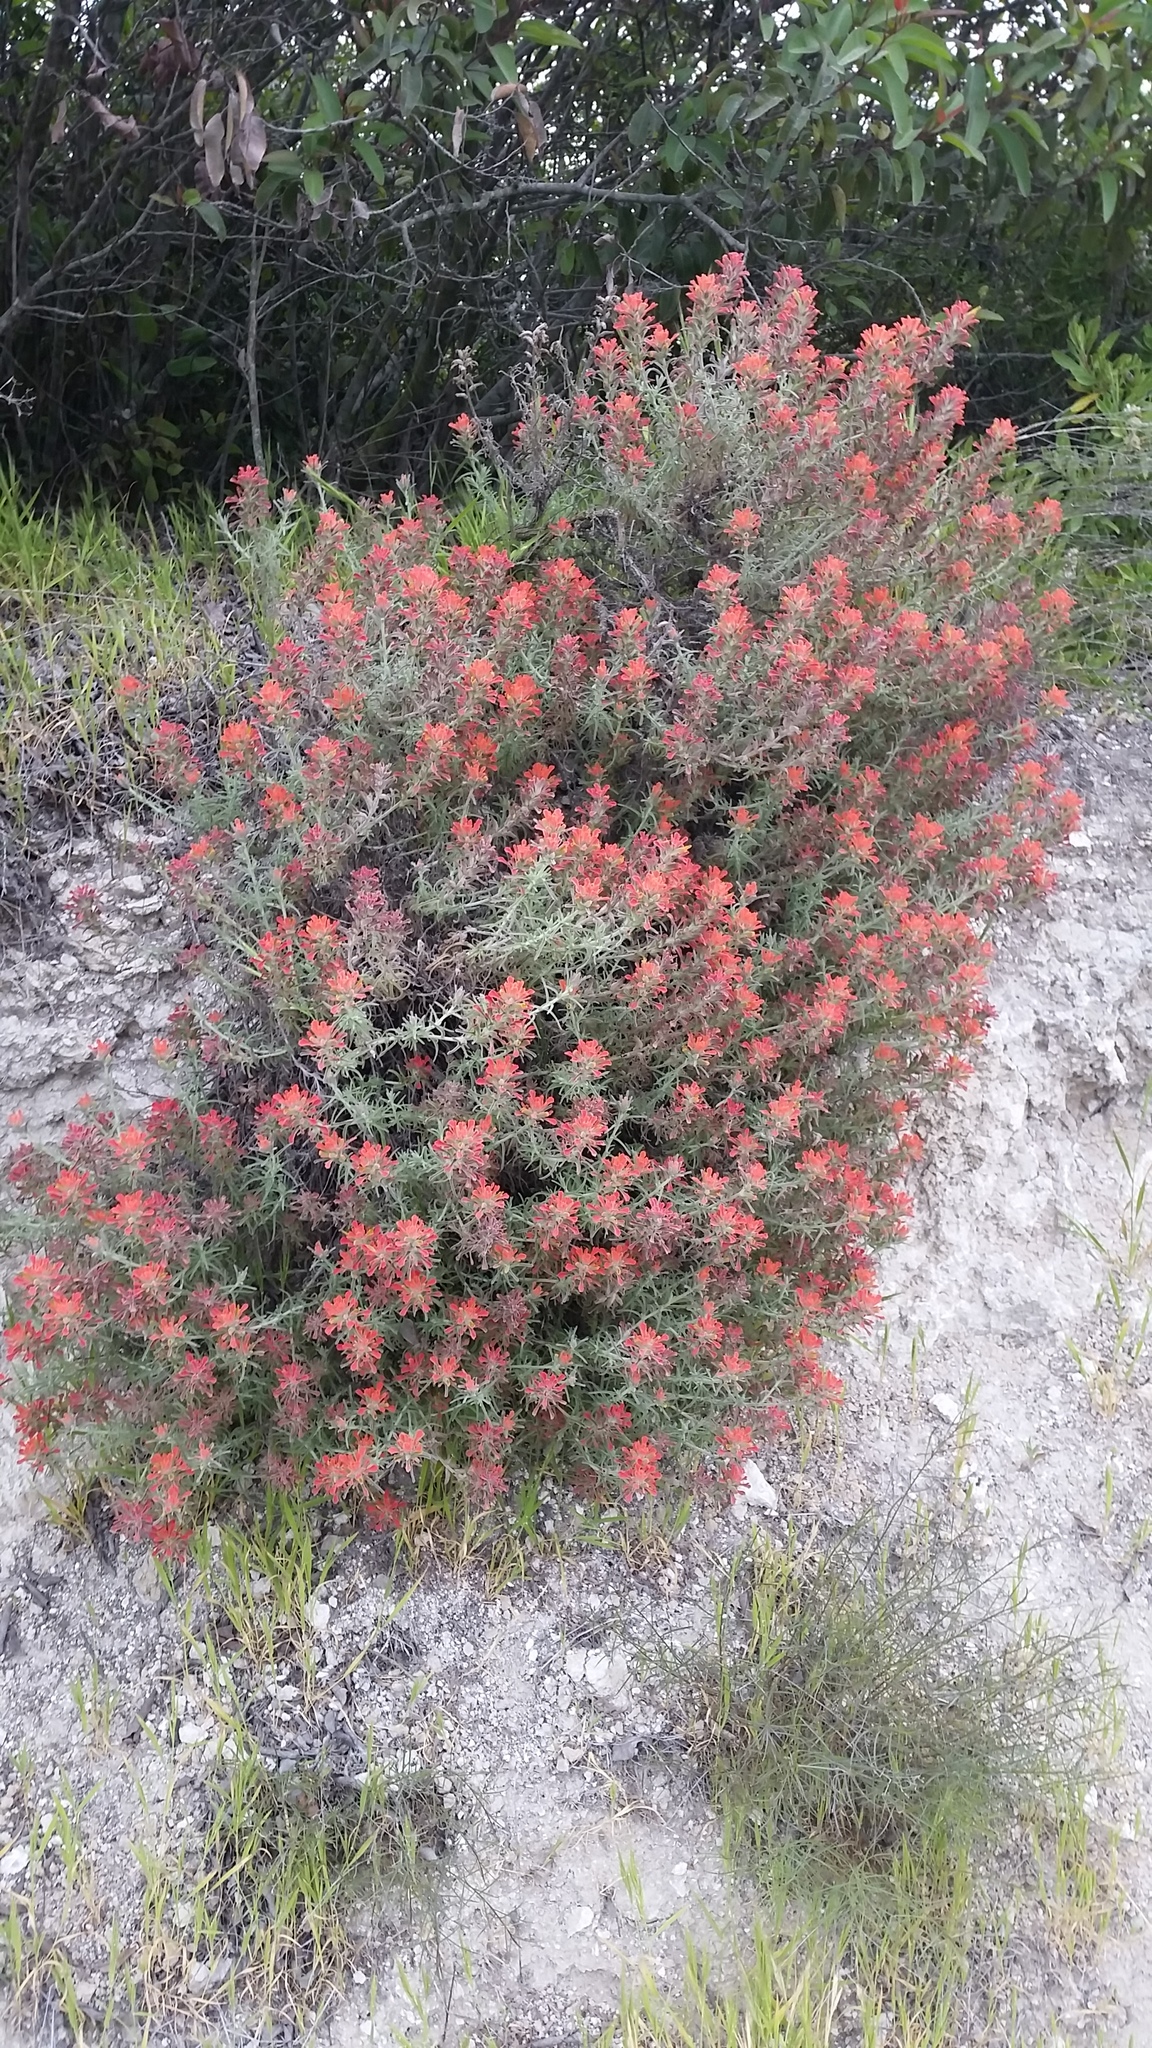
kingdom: Plantae
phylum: Tracheophyta
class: Magnoliopsida
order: Lamiales
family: Orobanchaceae
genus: Castilleja
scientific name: Castilleja foliolosa
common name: Woolly indian paintbrush
